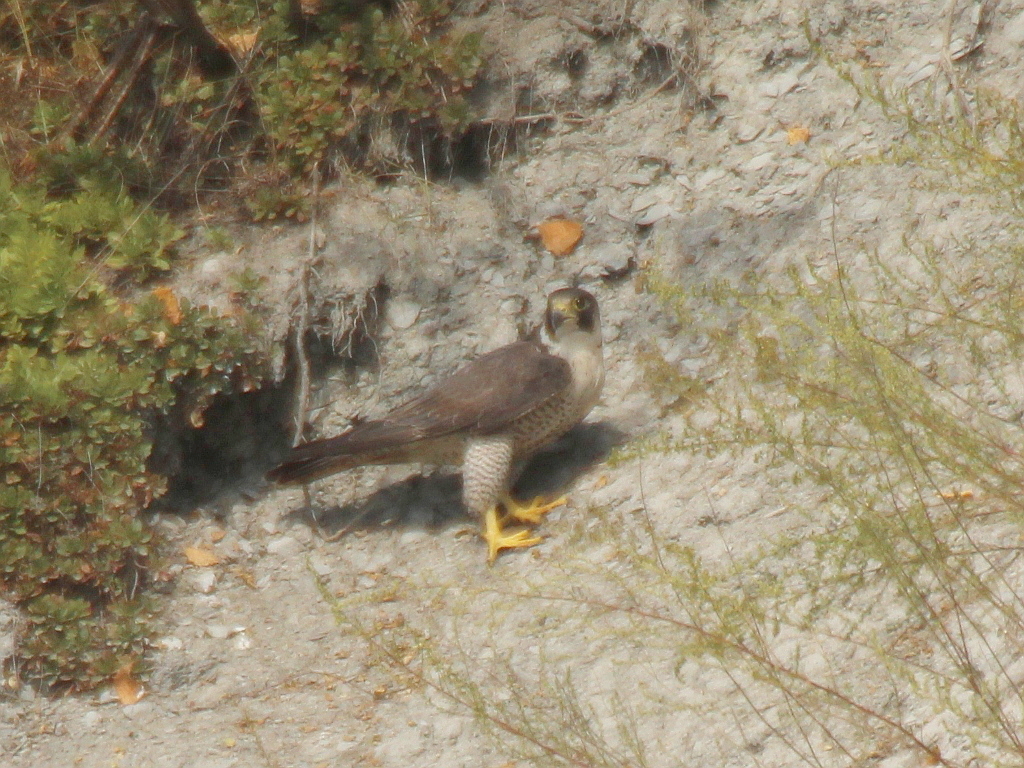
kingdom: Animalia
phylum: Chordata
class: Aves
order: Falconiformes
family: Falconidae
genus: Falco
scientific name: Falco peregrinus
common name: Peregrine falcon
